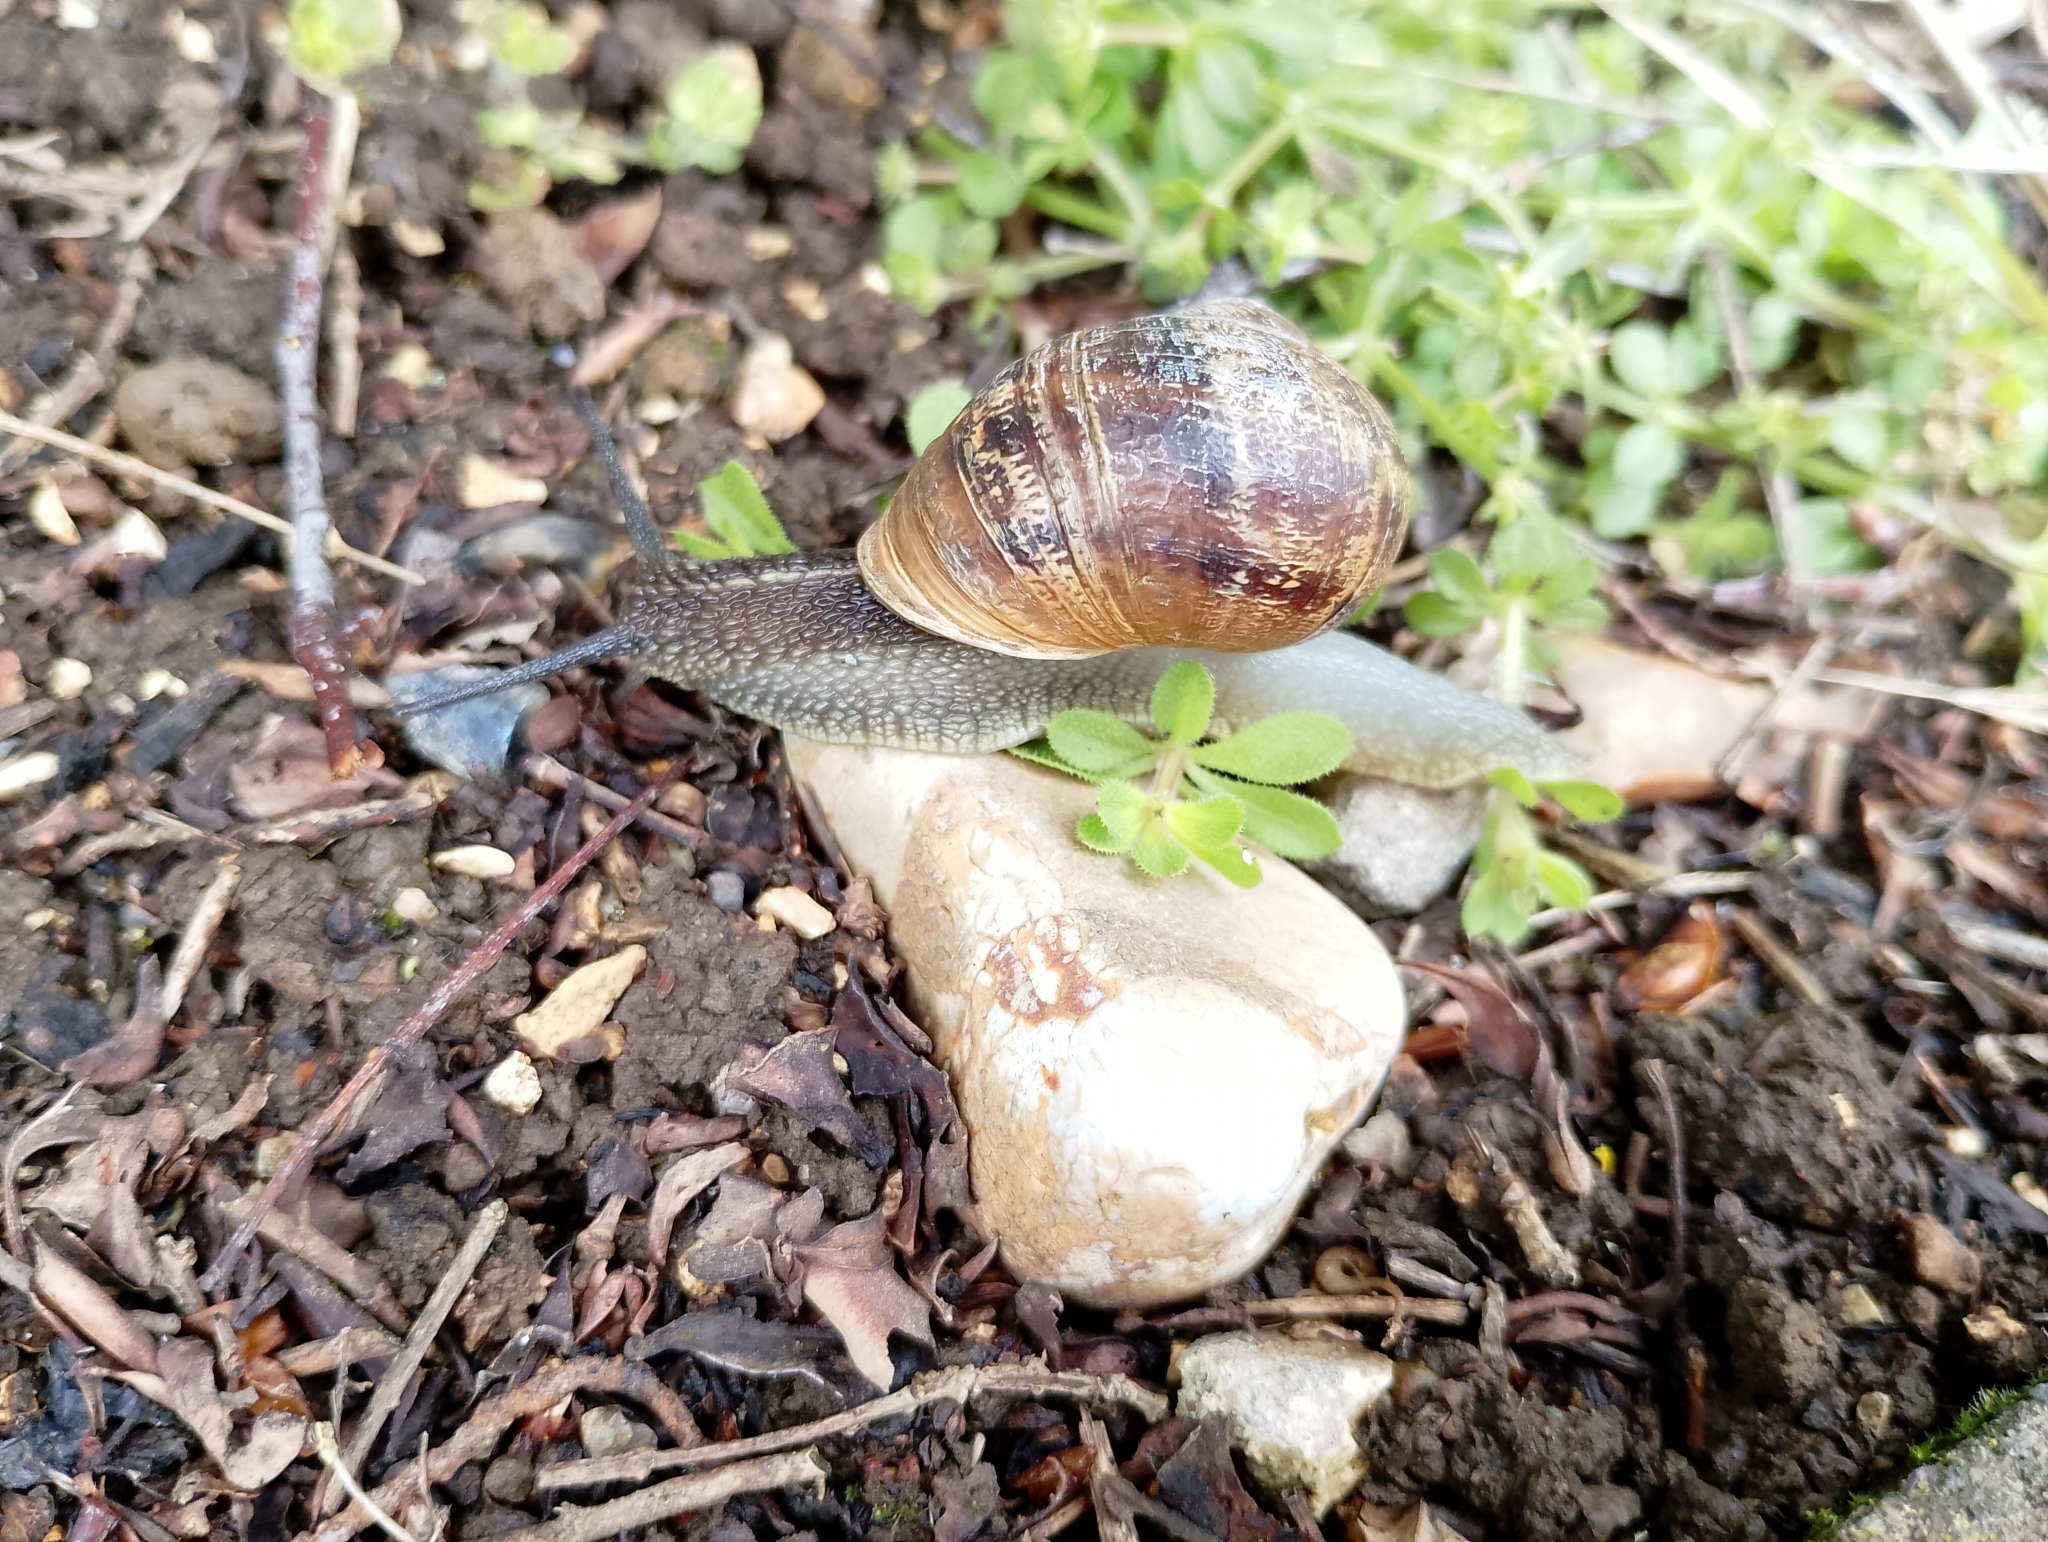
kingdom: Animalia
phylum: Mollusca
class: Gastropoda
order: Stylommatophora
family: Helicidae
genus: Cornu
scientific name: Cornu aspersum
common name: Brown garden snail
